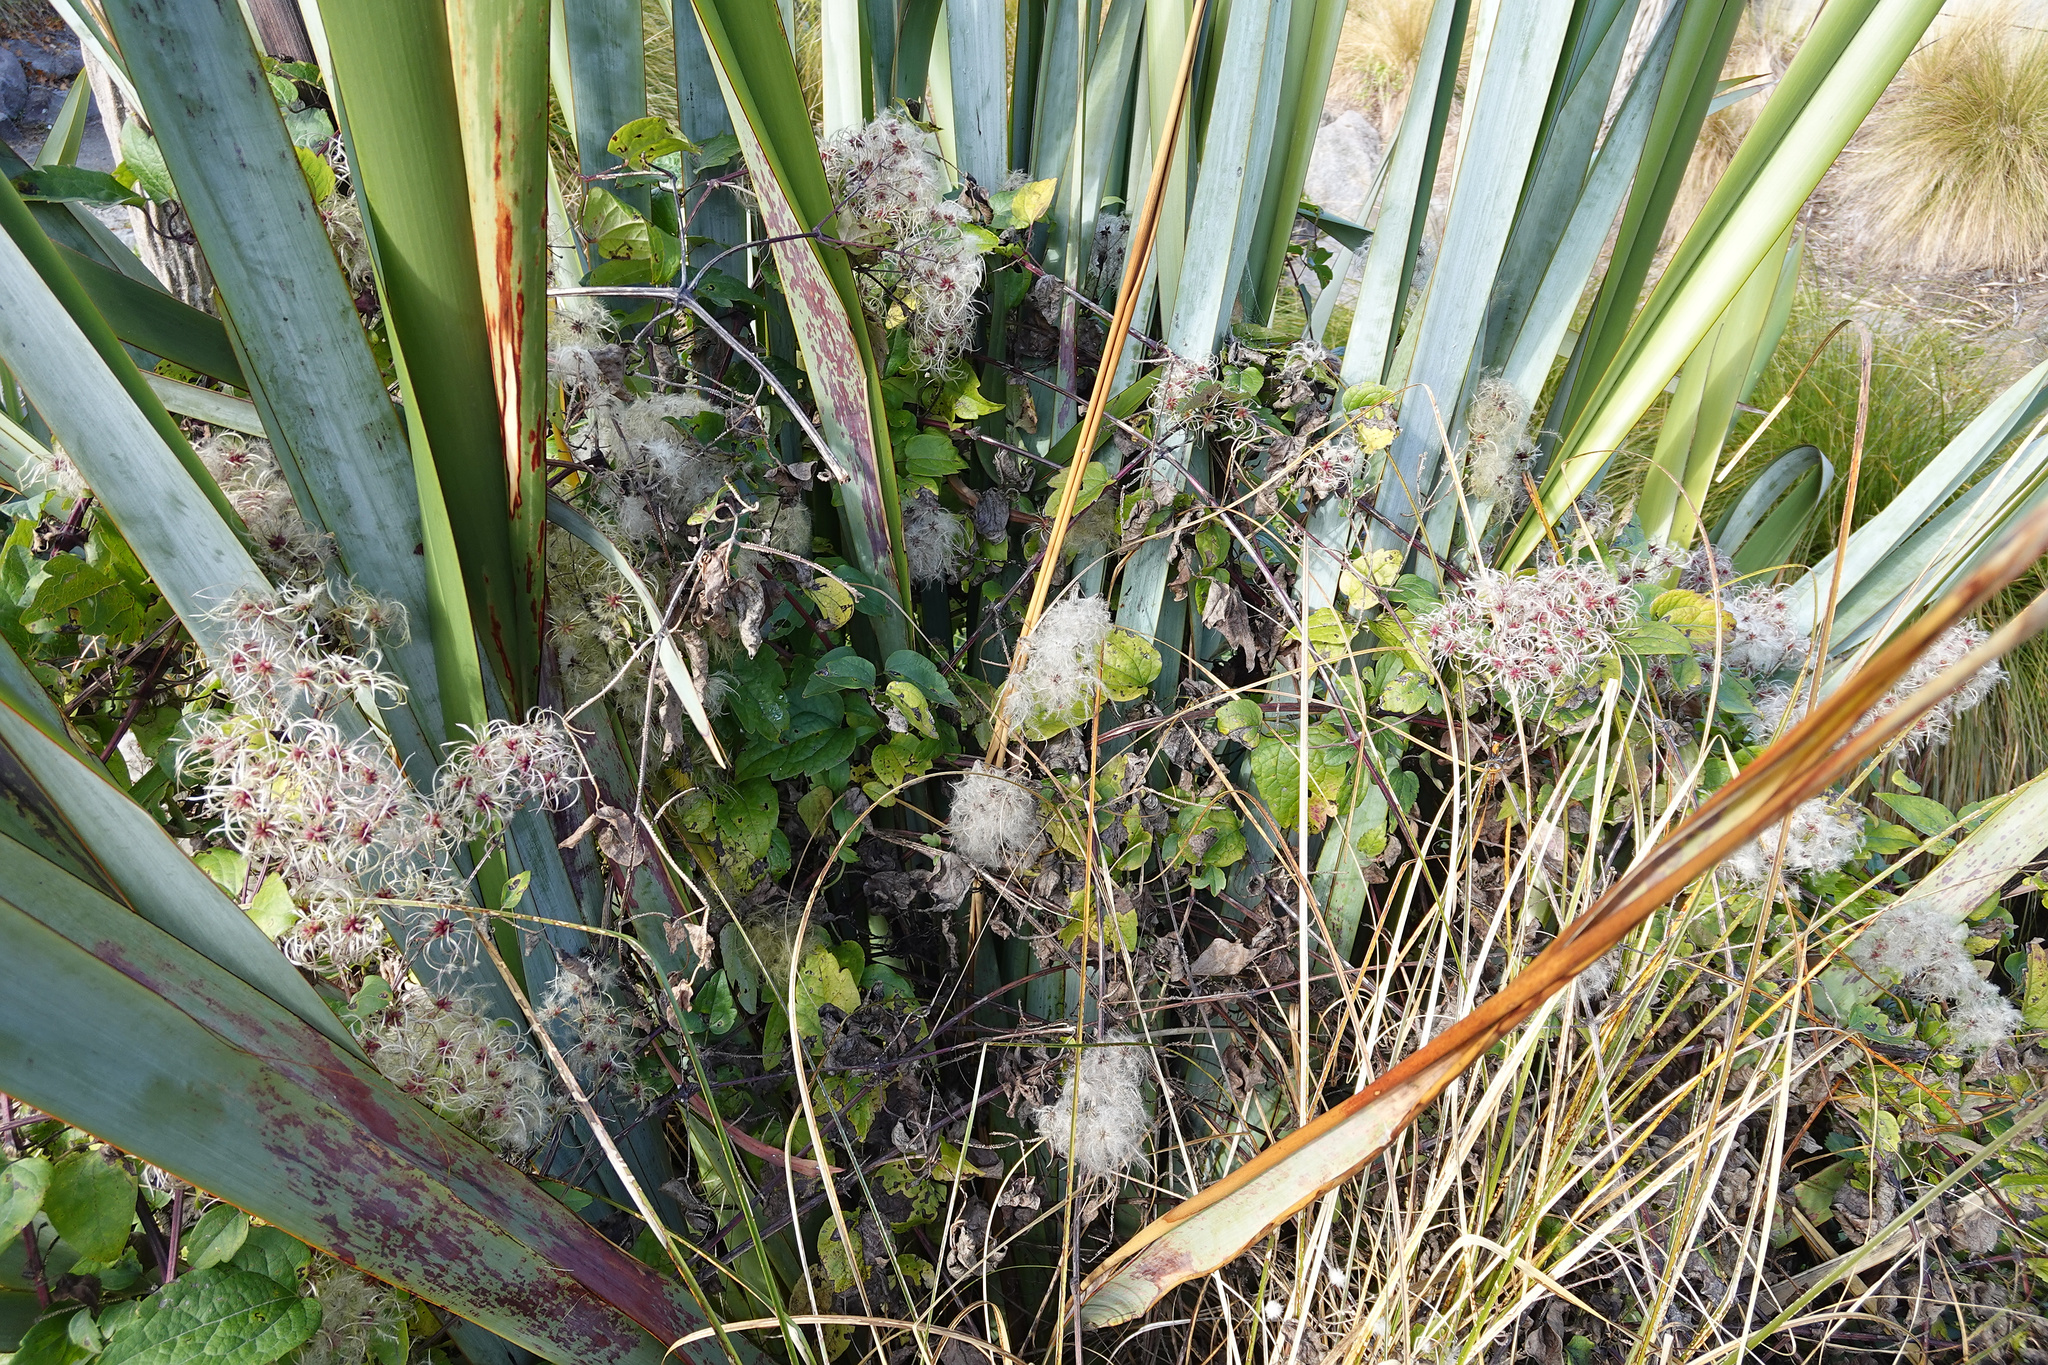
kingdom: Plantae
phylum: Tracheophyta
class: Magnoliopsida
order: Ranunculales
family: Ranunculaceae
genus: Clematis
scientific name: Clematis vitalba
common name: Evergreen clematis
